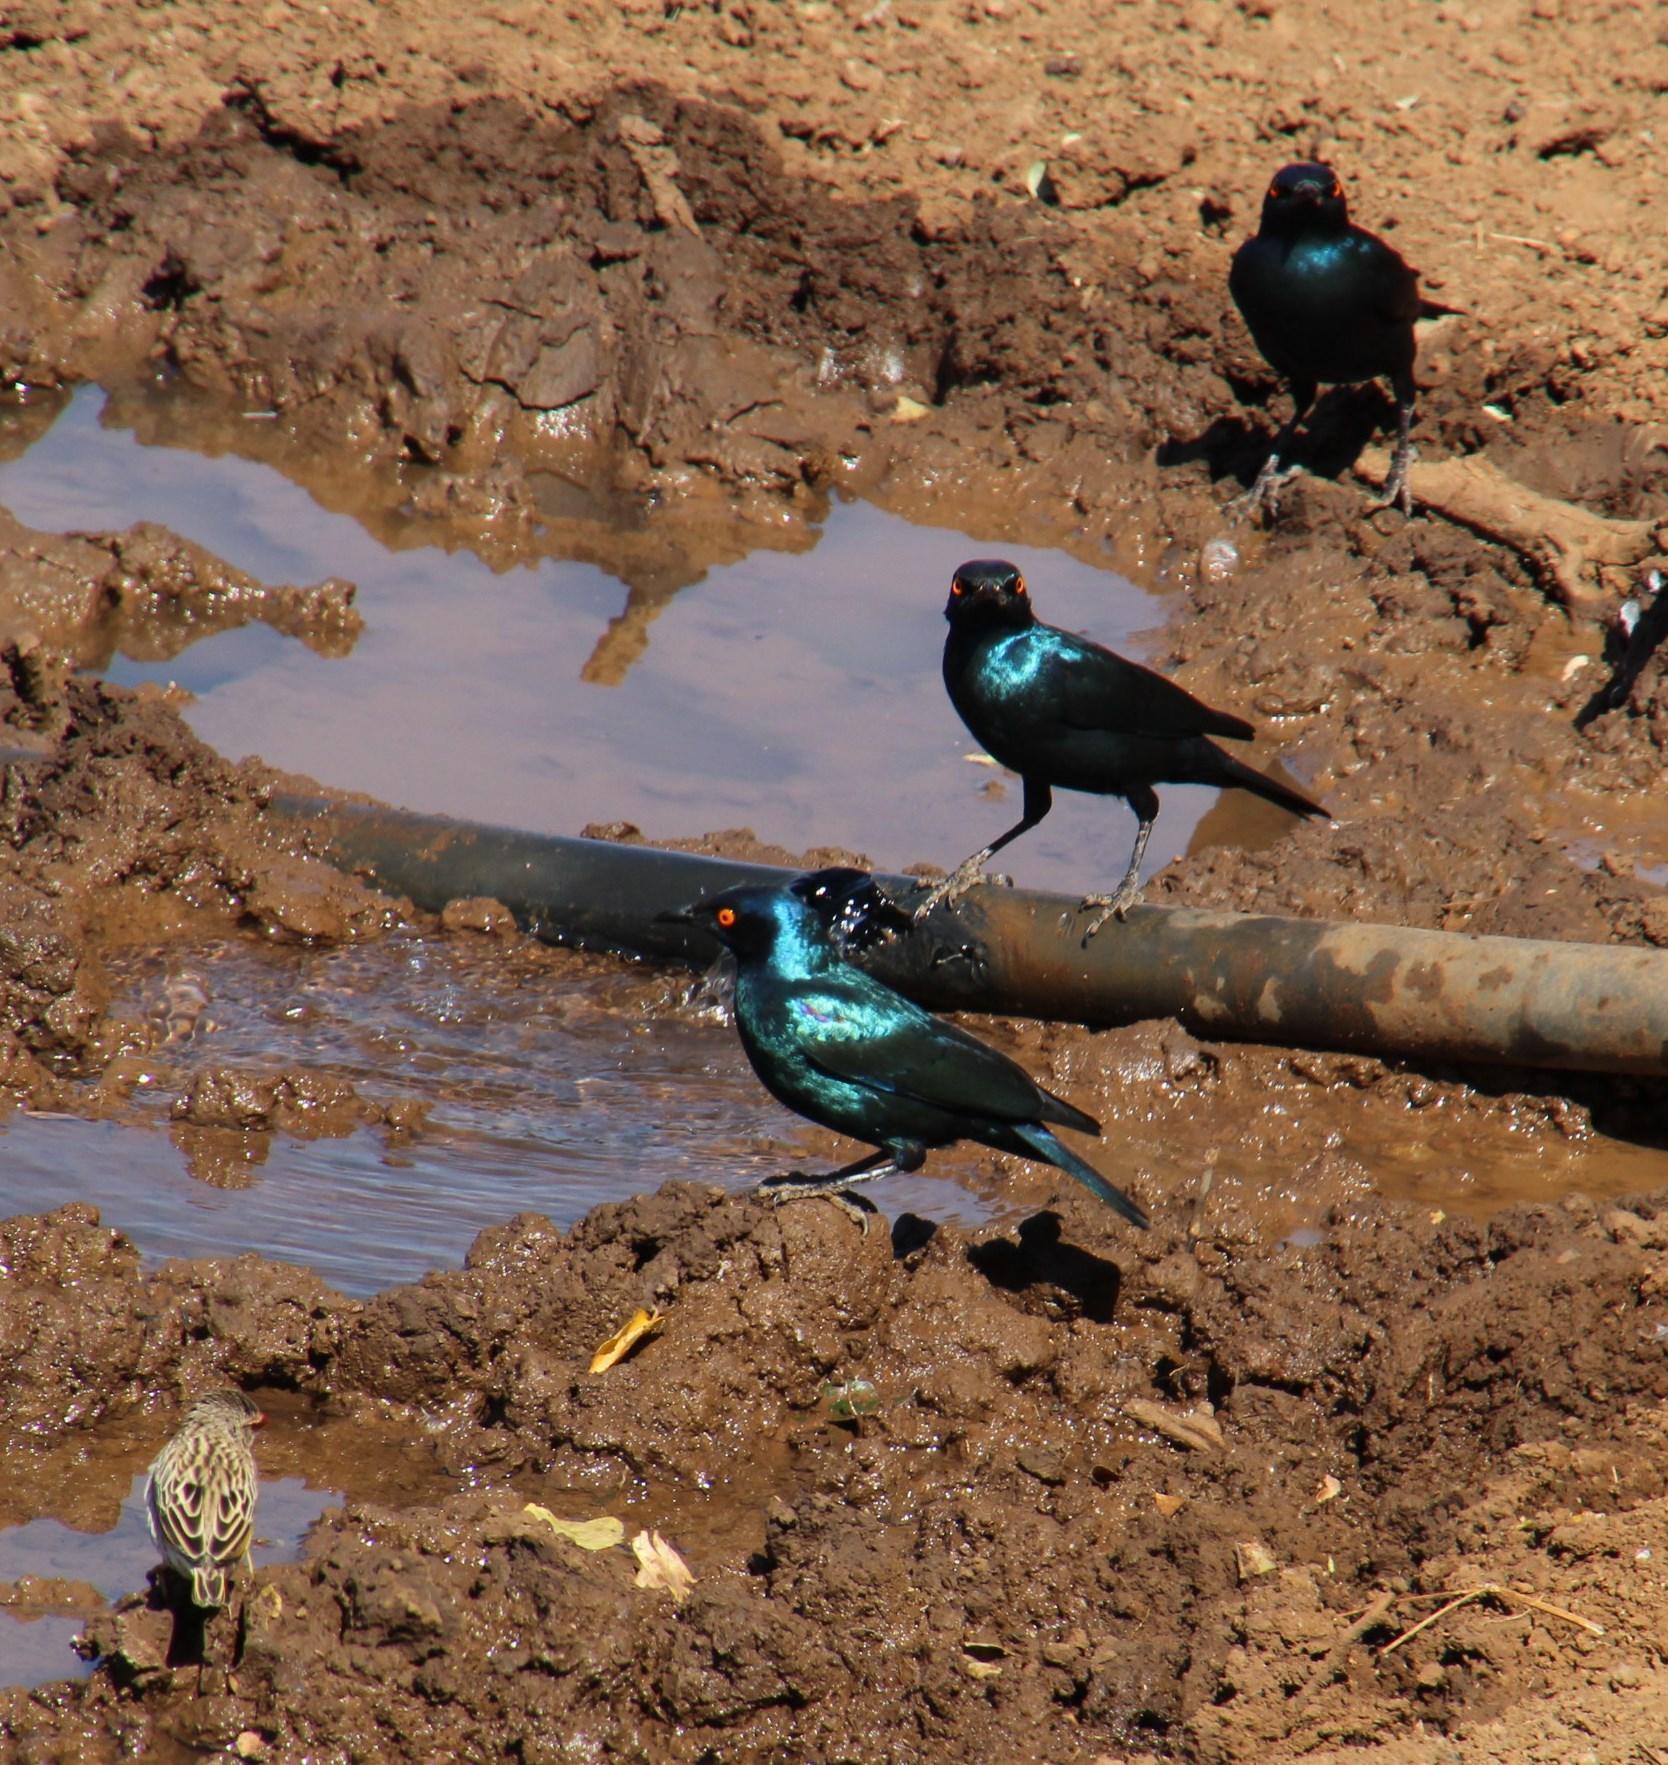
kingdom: Animalia
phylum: Chordata
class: Aves
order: Passeriformes
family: Sturnidae
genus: Lamprotornis
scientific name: Lamprotornis nitens
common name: Cape starling
